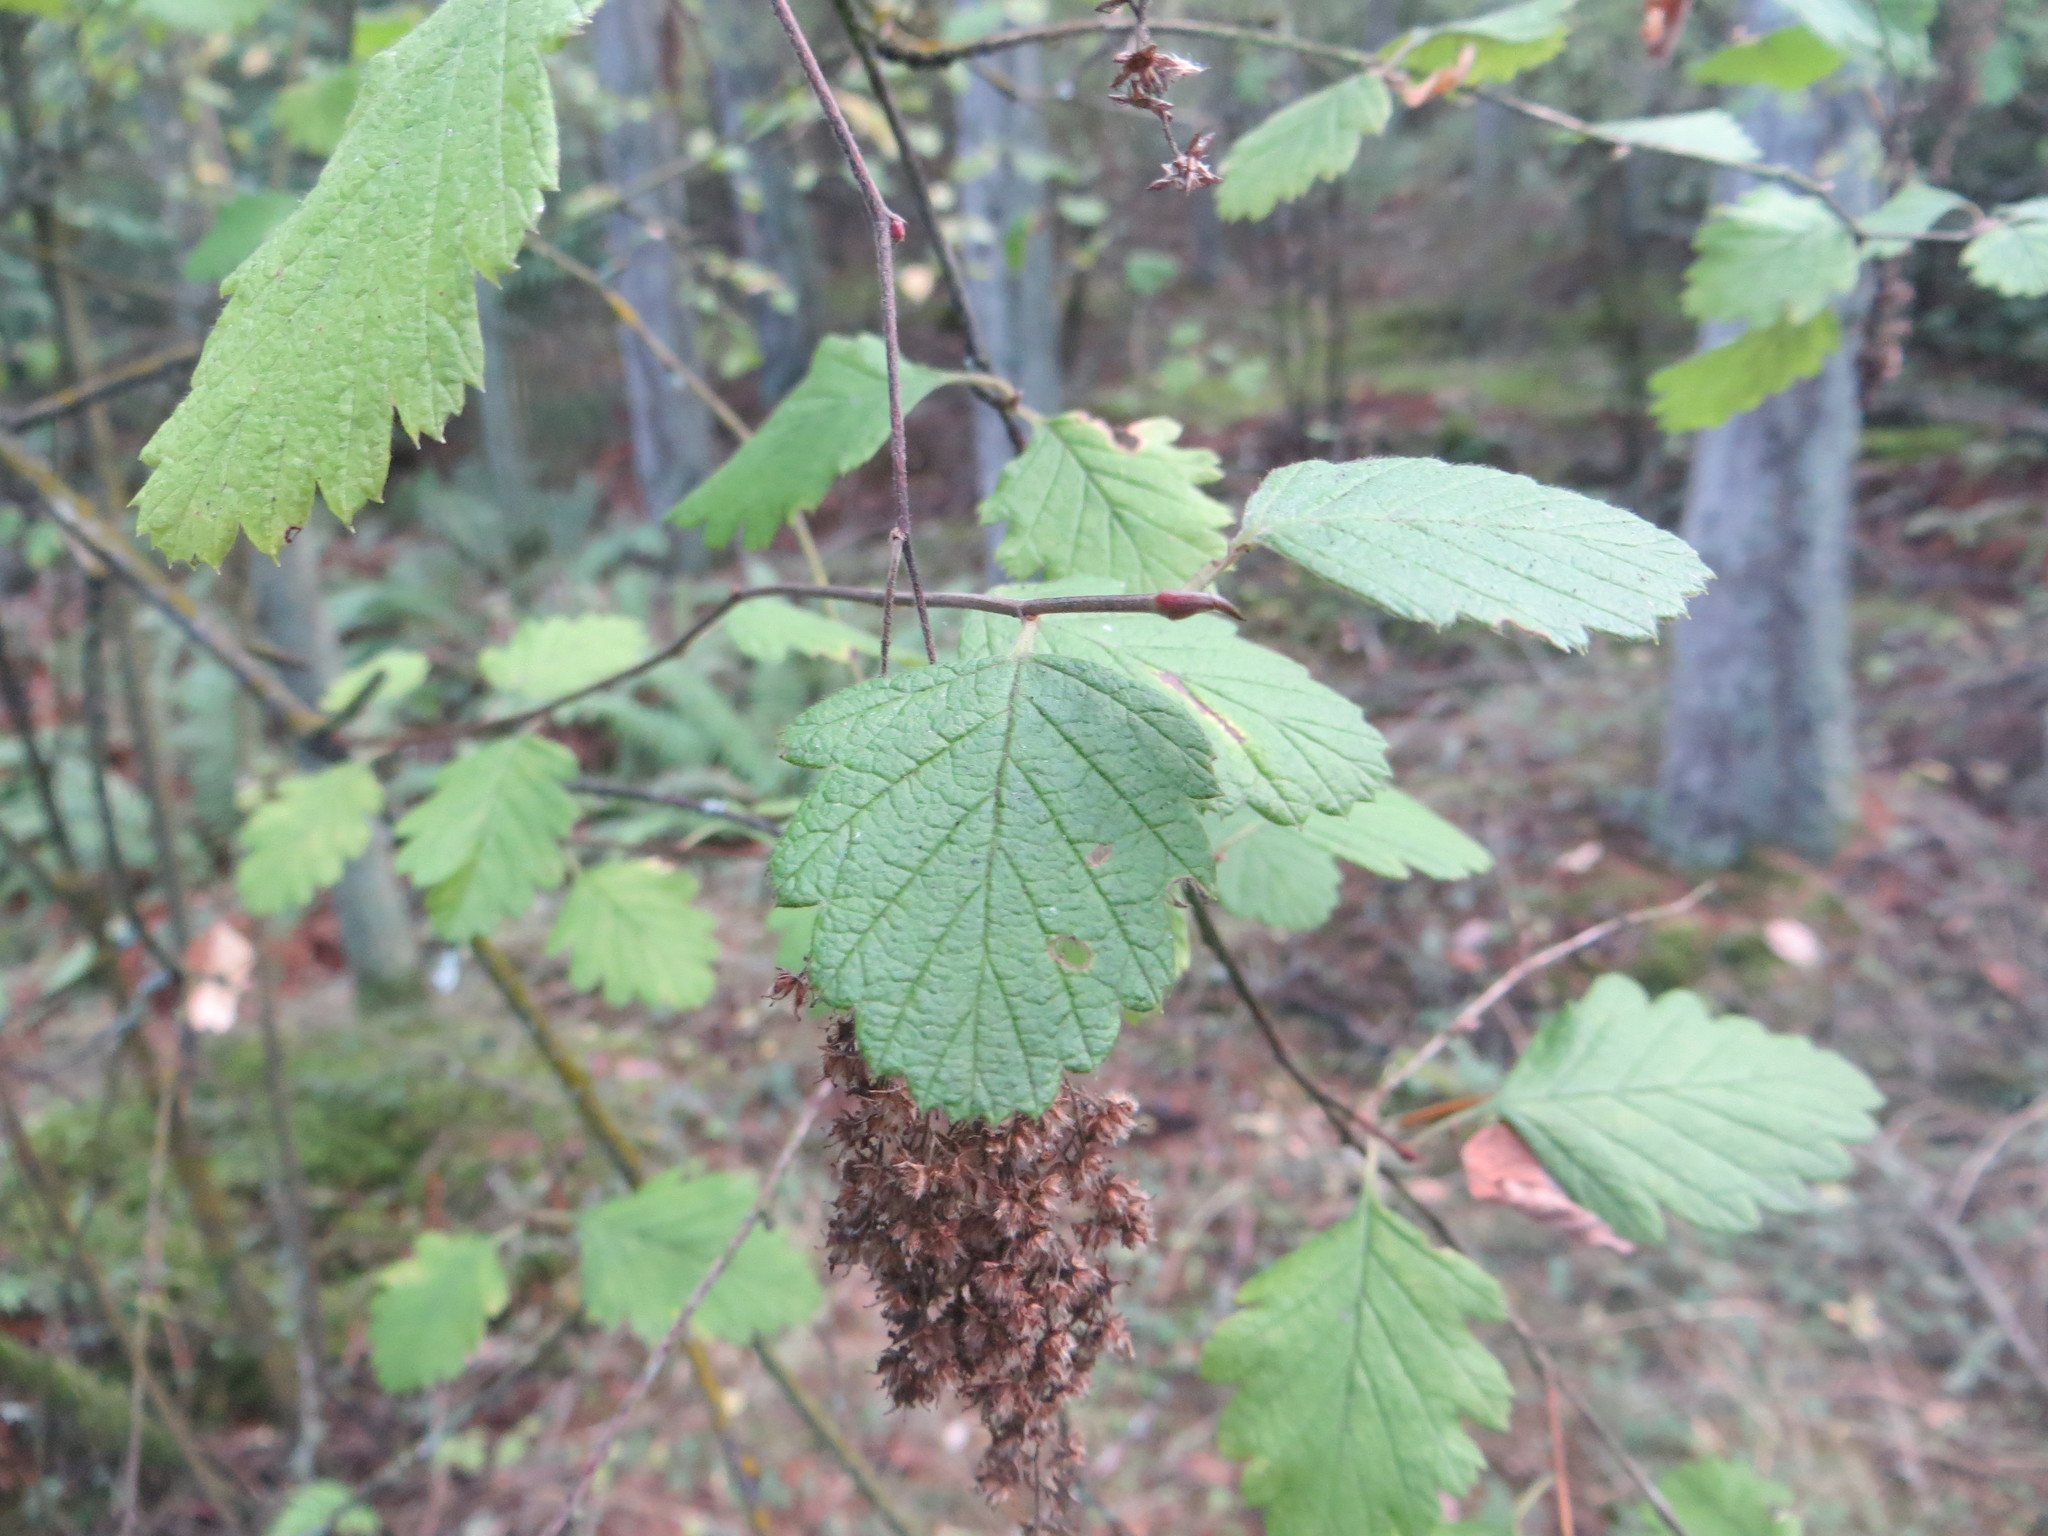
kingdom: Plantae
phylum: Tracheophyta
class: Magnoliopsida
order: Rosales
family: Rosaceae
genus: Holodiscus
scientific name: Holodiscus discolor
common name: Oceanspray
